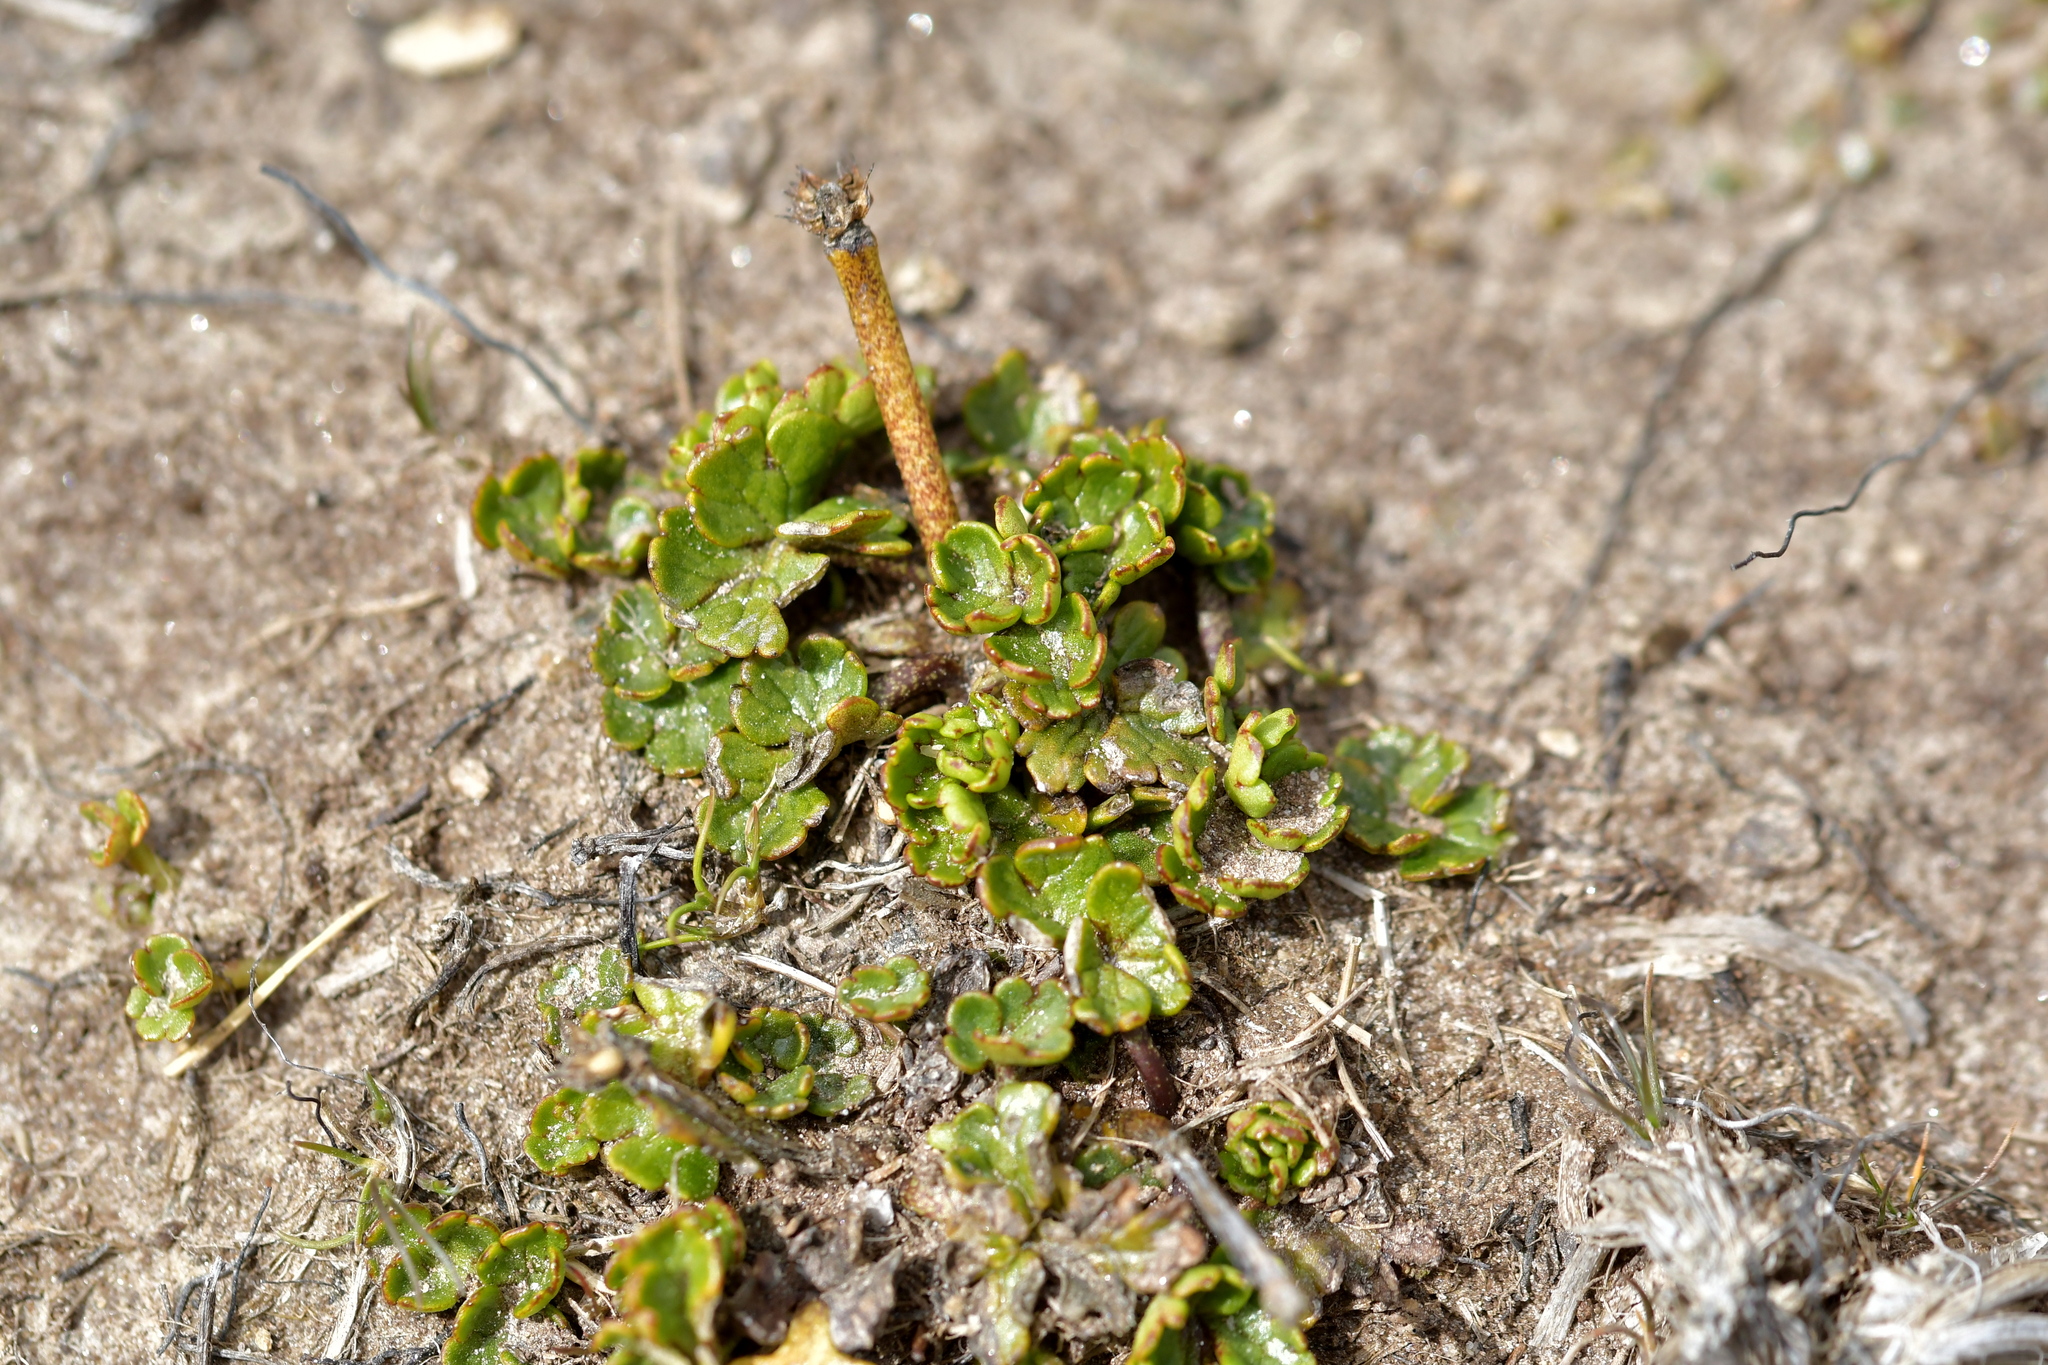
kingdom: Plantae
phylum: Tracheophyta
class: Magnoliopsida
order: Ranunculales
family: Ranunculaceae
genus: Ranunculus
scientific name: Ranunculus enysii
